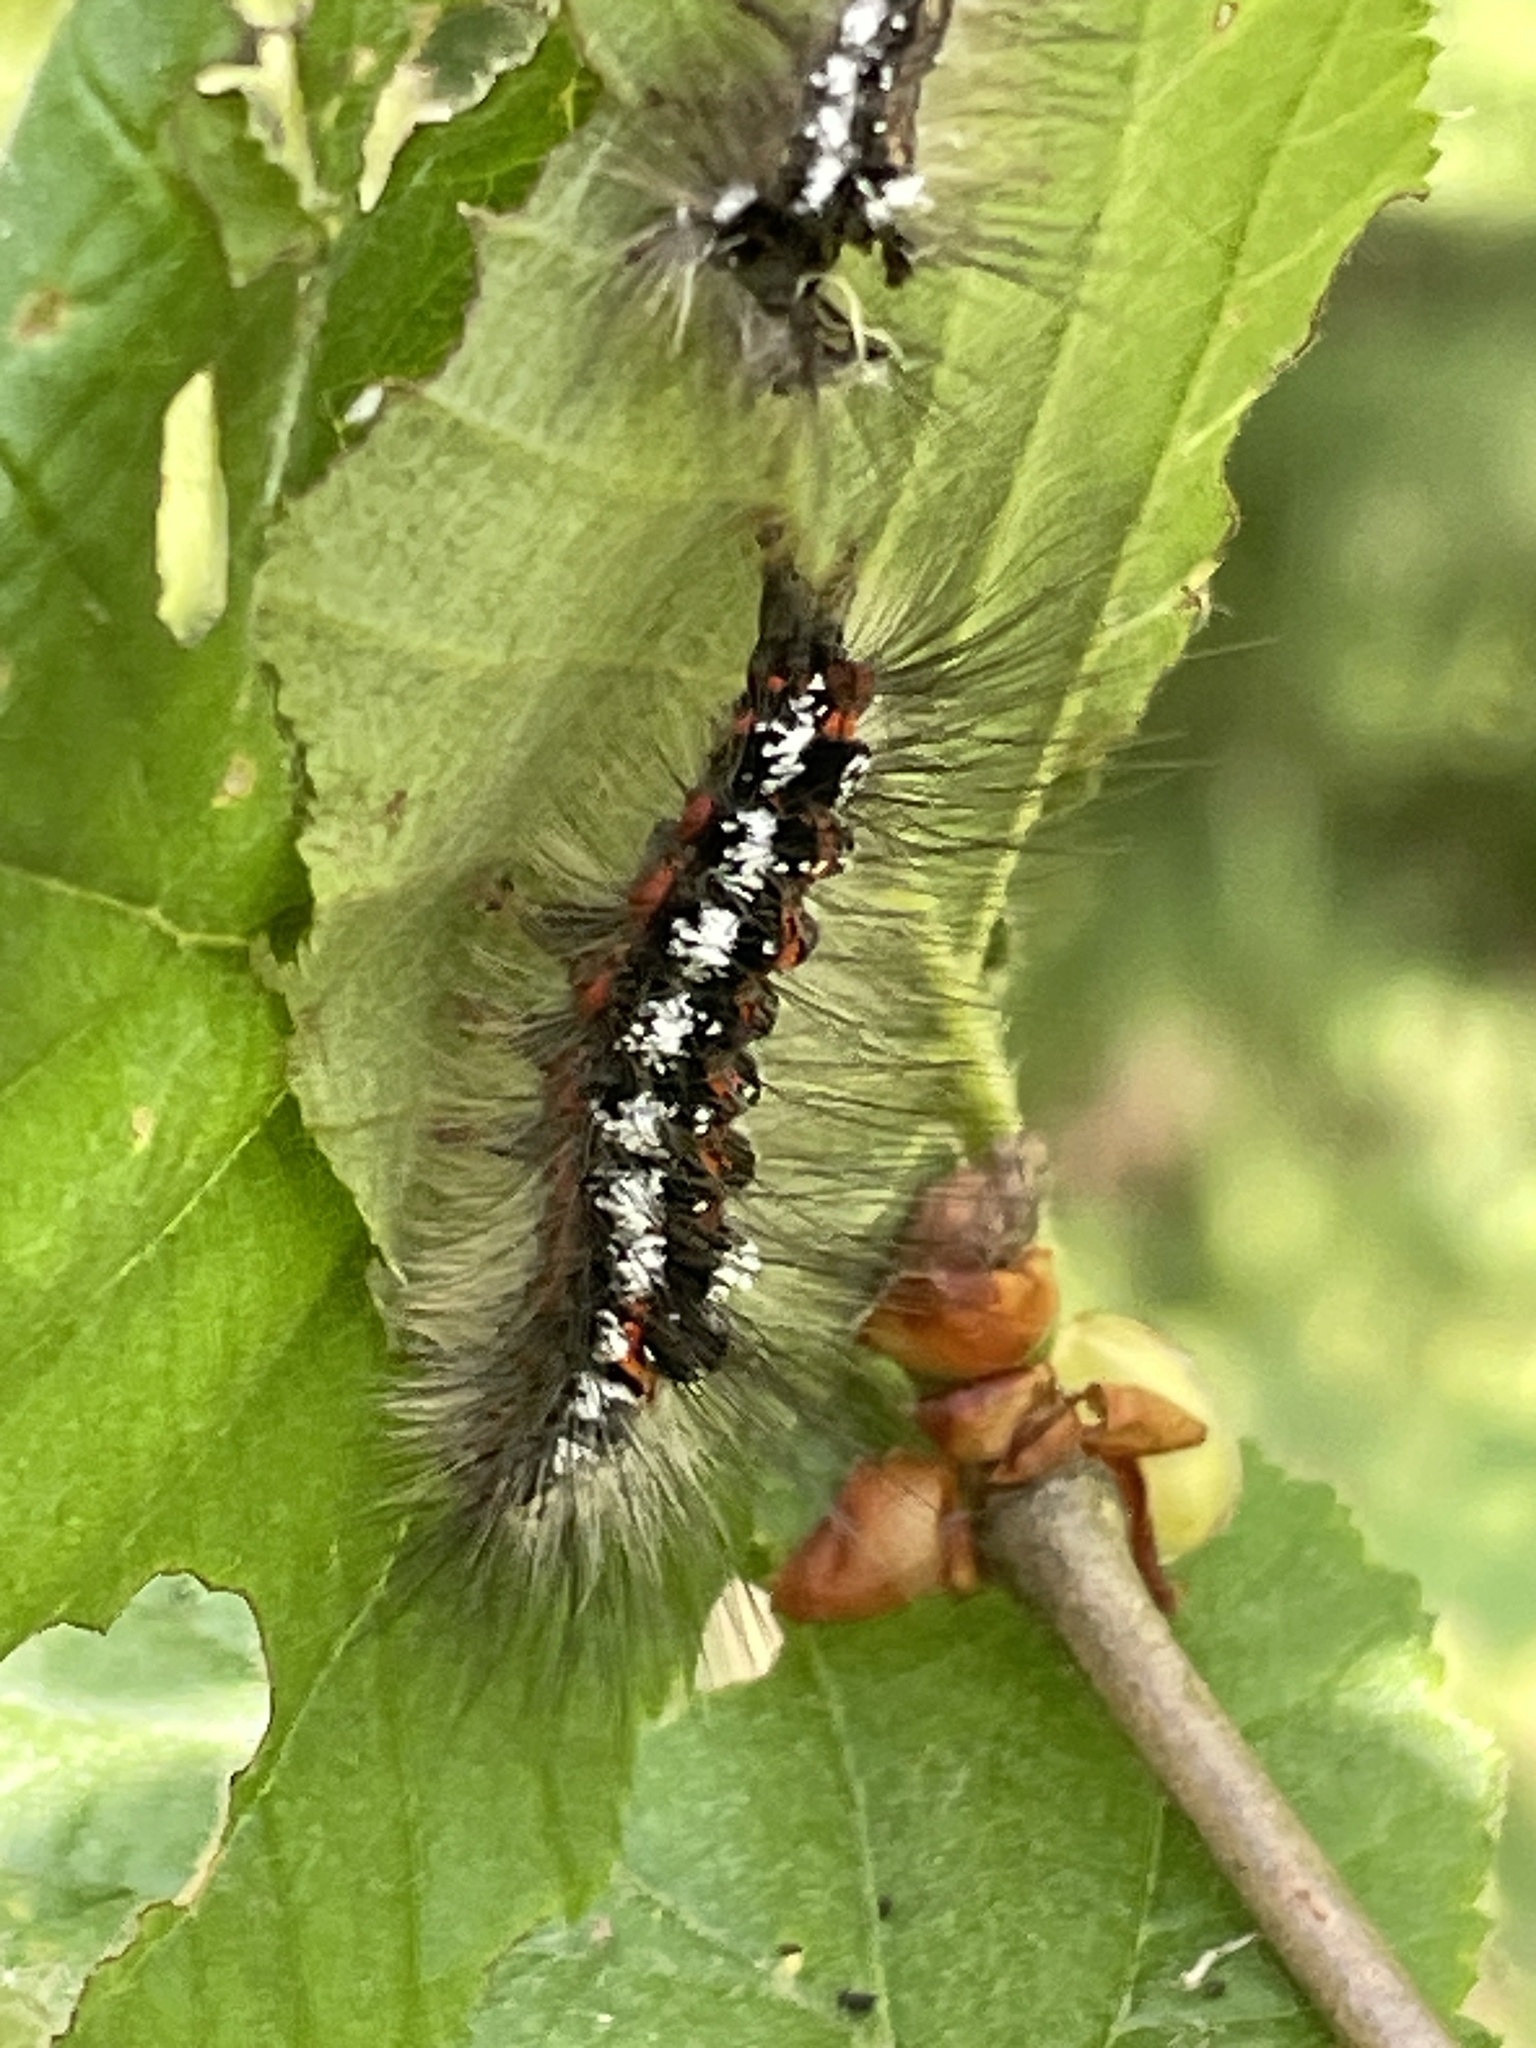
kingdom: Animalia
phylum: Arthropoda
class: Insecta
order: Lepidoptera
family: Erebidae
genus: Sphrageidus
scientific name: Sphrageidus similis
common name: Yellow-tail
